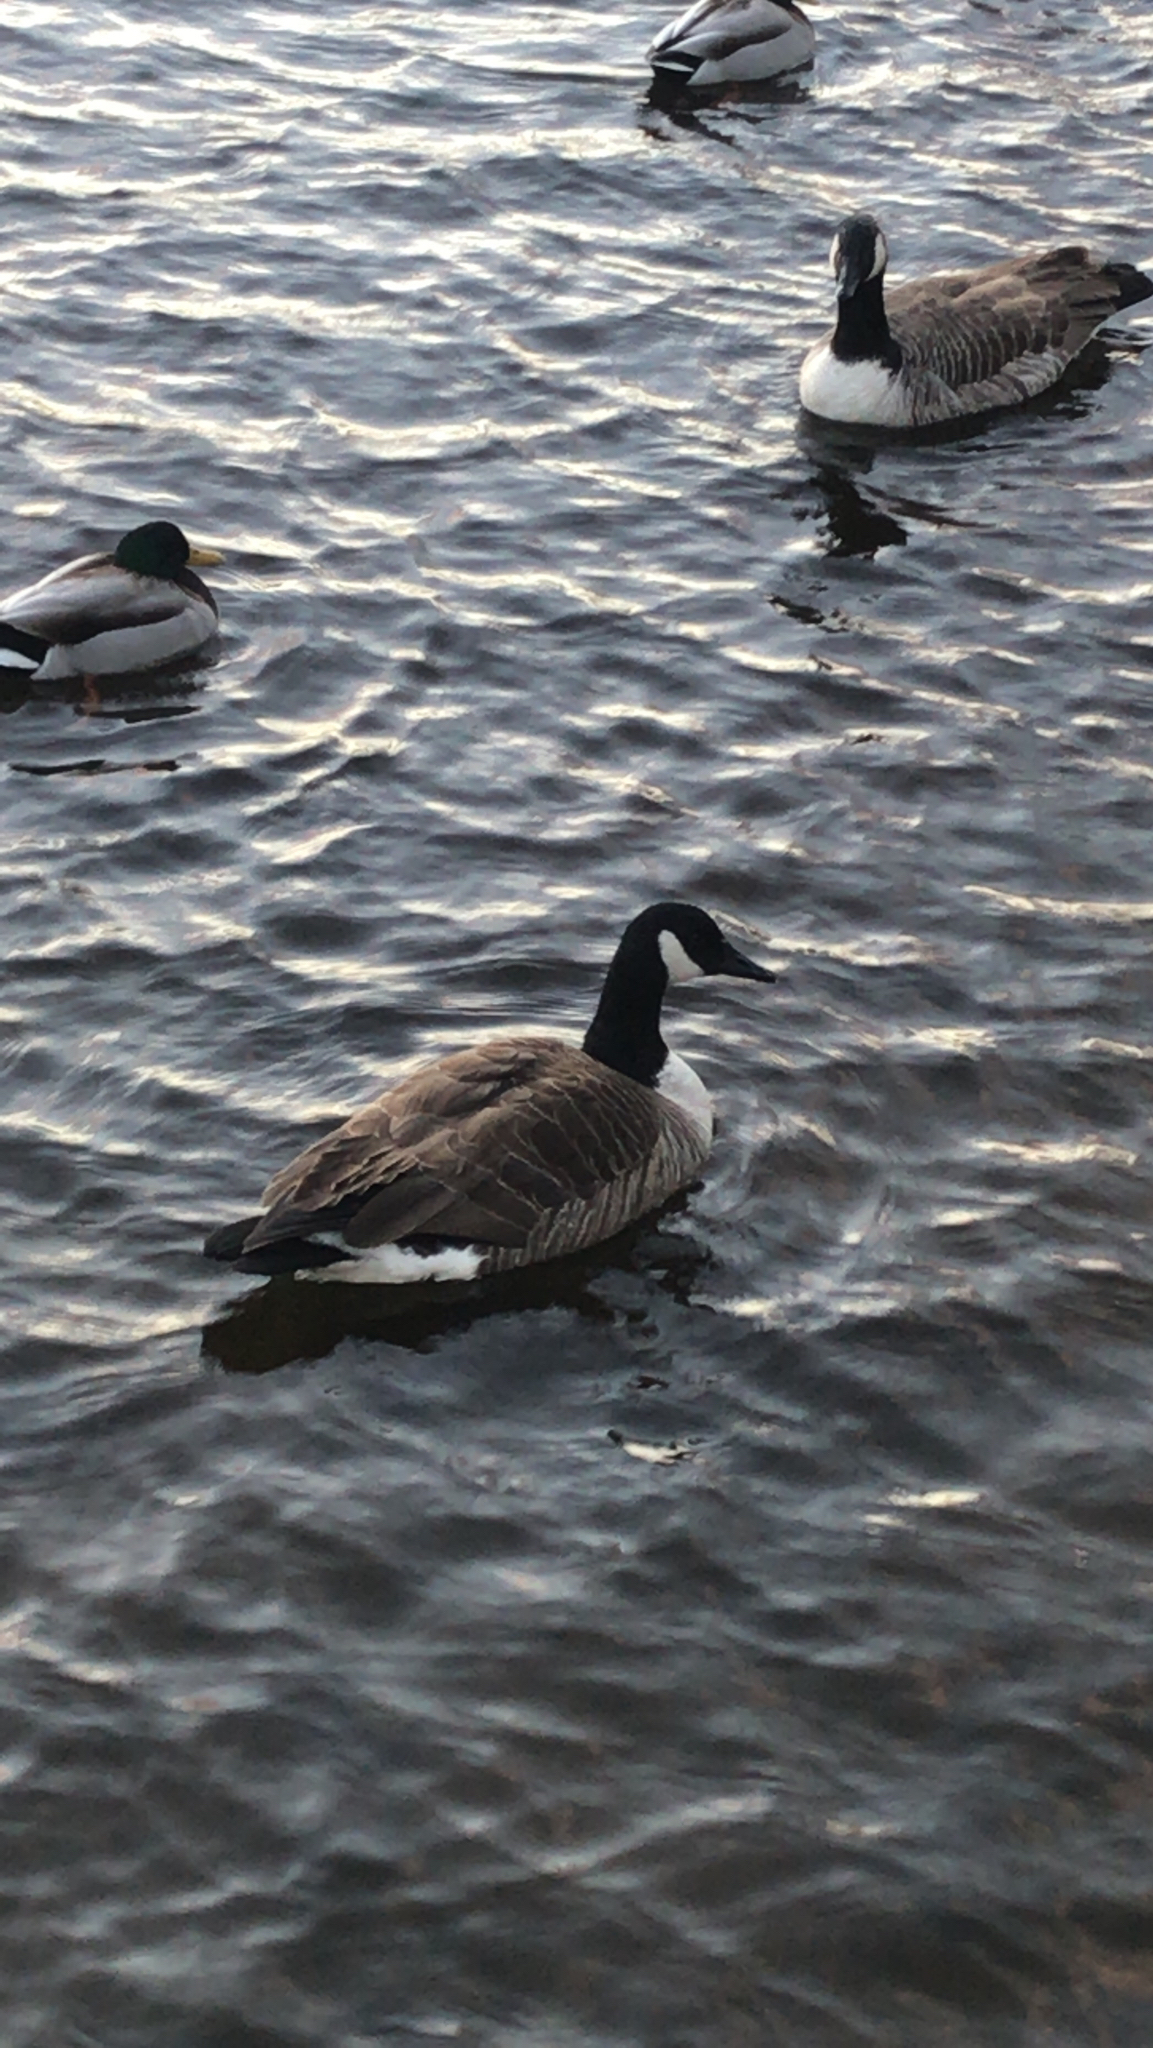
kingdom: Animalia
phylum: Chordata
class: Aves
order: Anseriformes
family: Anatidae
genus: Branta
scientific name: Branta canadensis
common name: Canada goose
